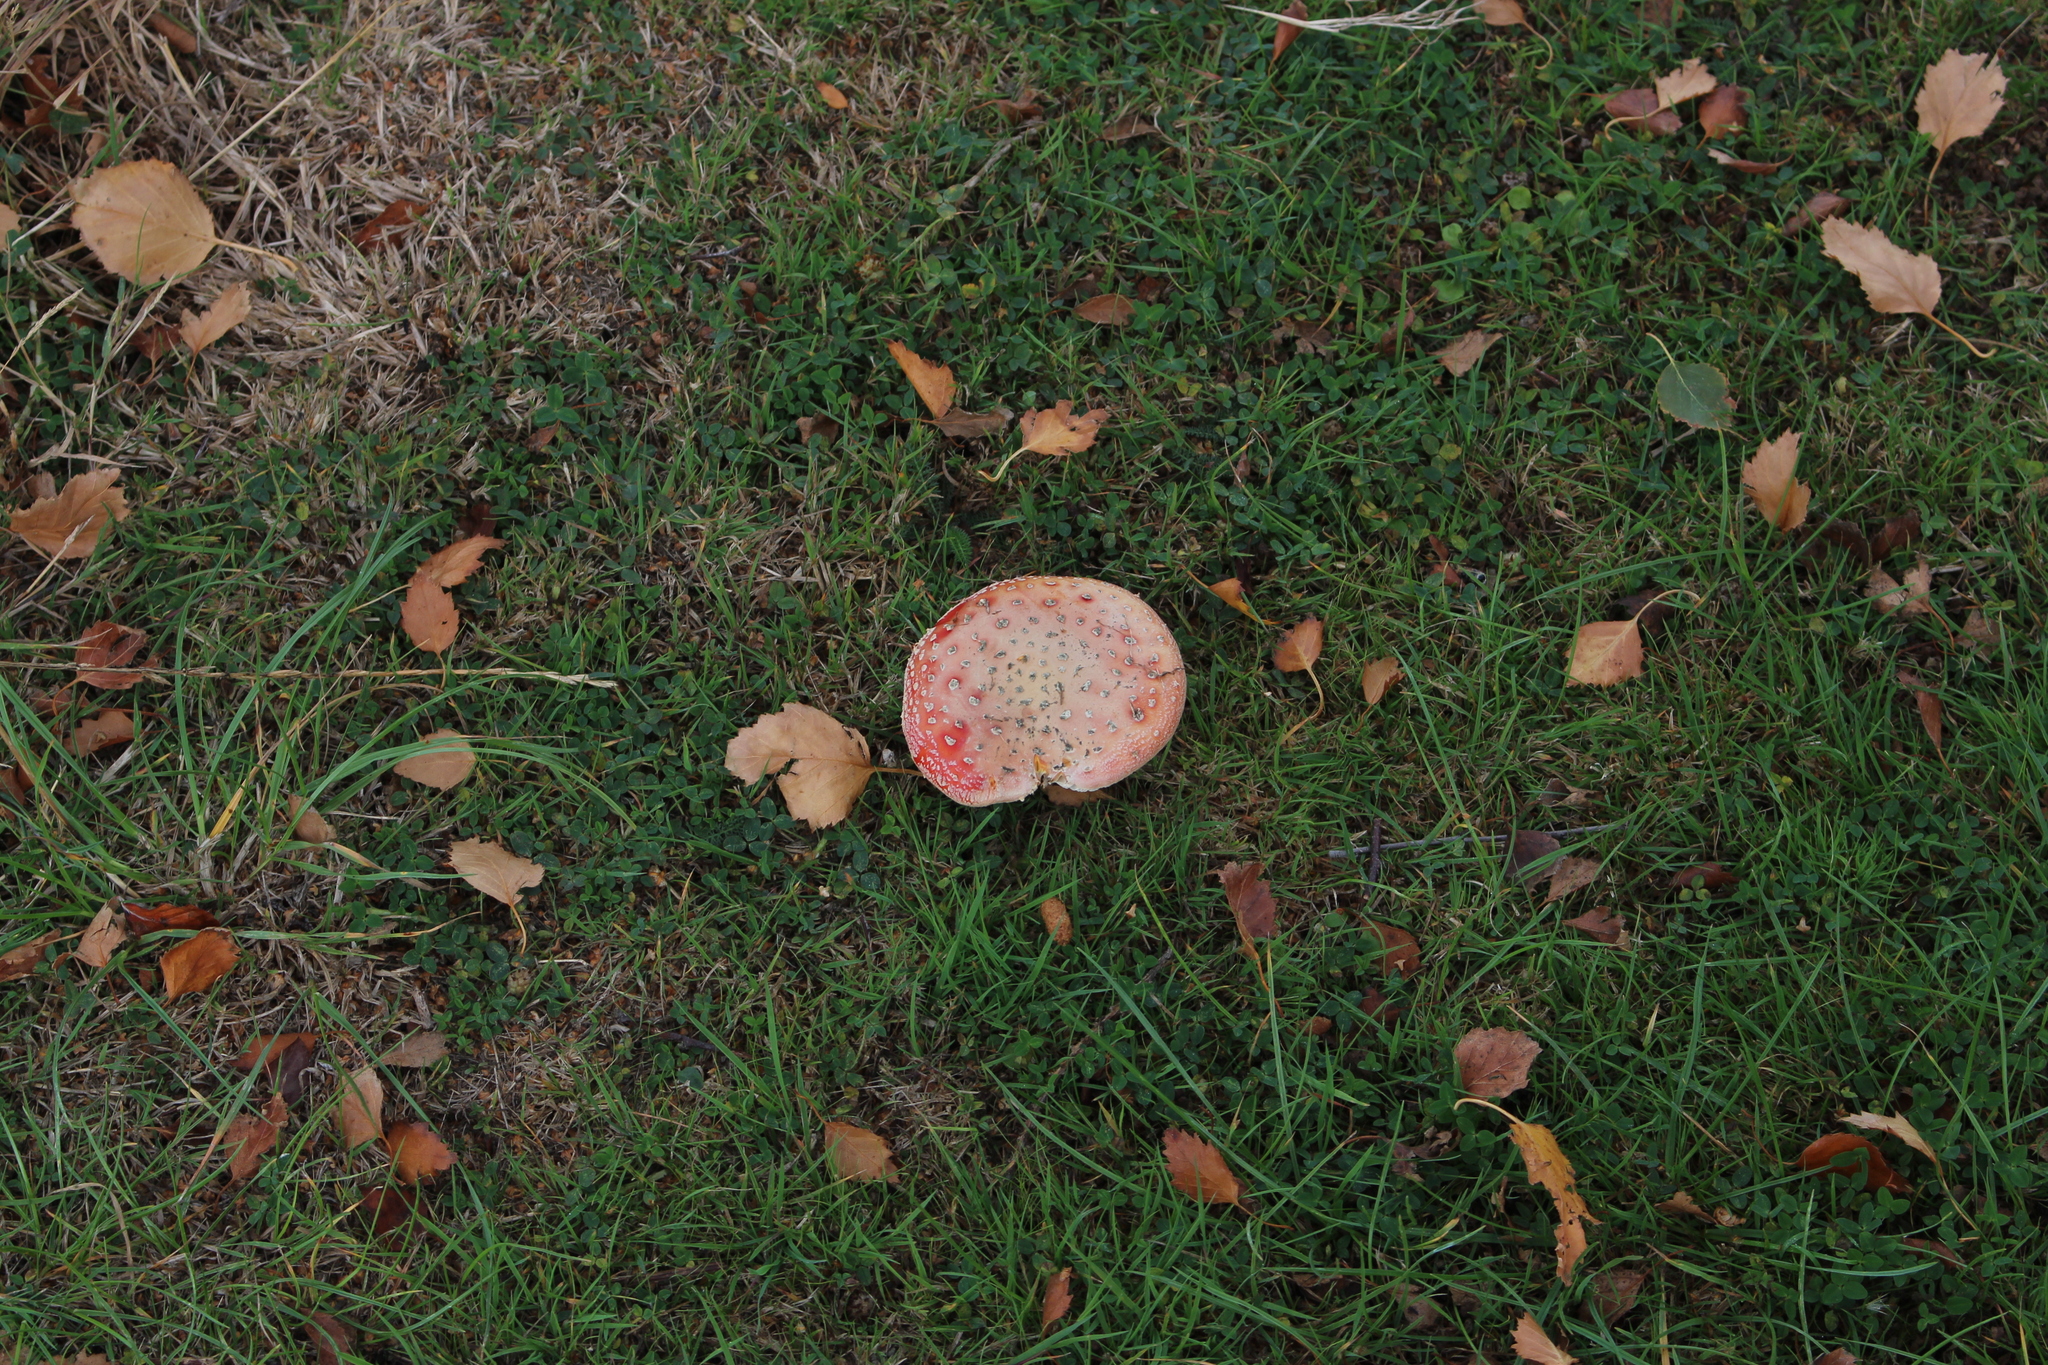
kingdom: Fungi
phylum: Basidiomycota
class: Agaricomycetes
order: Agaricales
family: Amanitaceae
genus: Amanita
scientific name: Amanita muscaria
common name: Fly agaric
